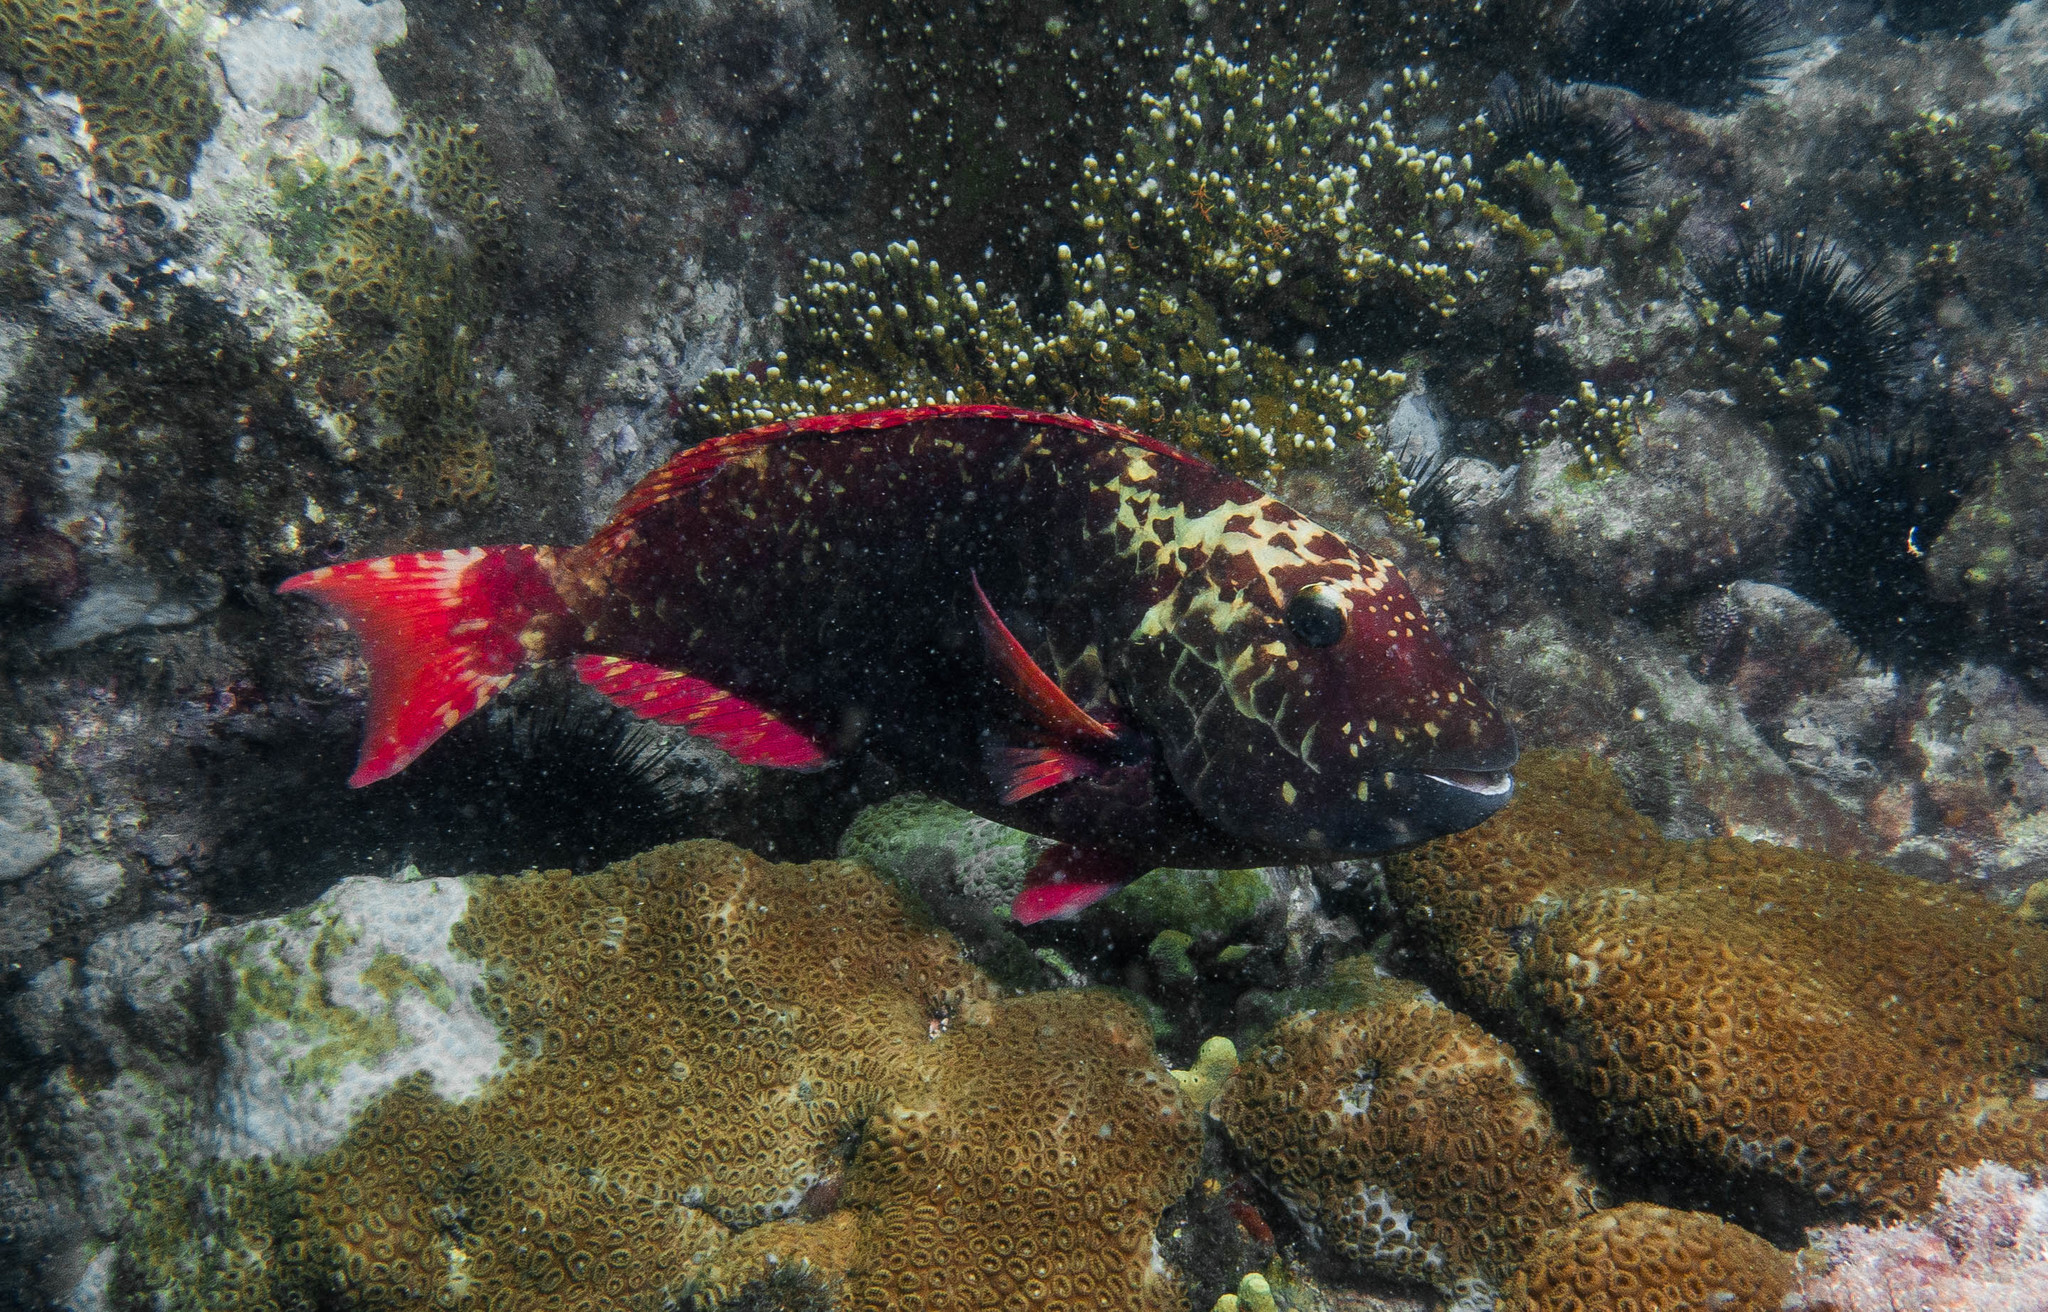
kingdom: Animalia
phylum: Chordata
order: Perciformes
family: Scaridae
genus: Sparisoma
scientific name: Sparisoma frondosum
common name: Agassiz's parrotfish
